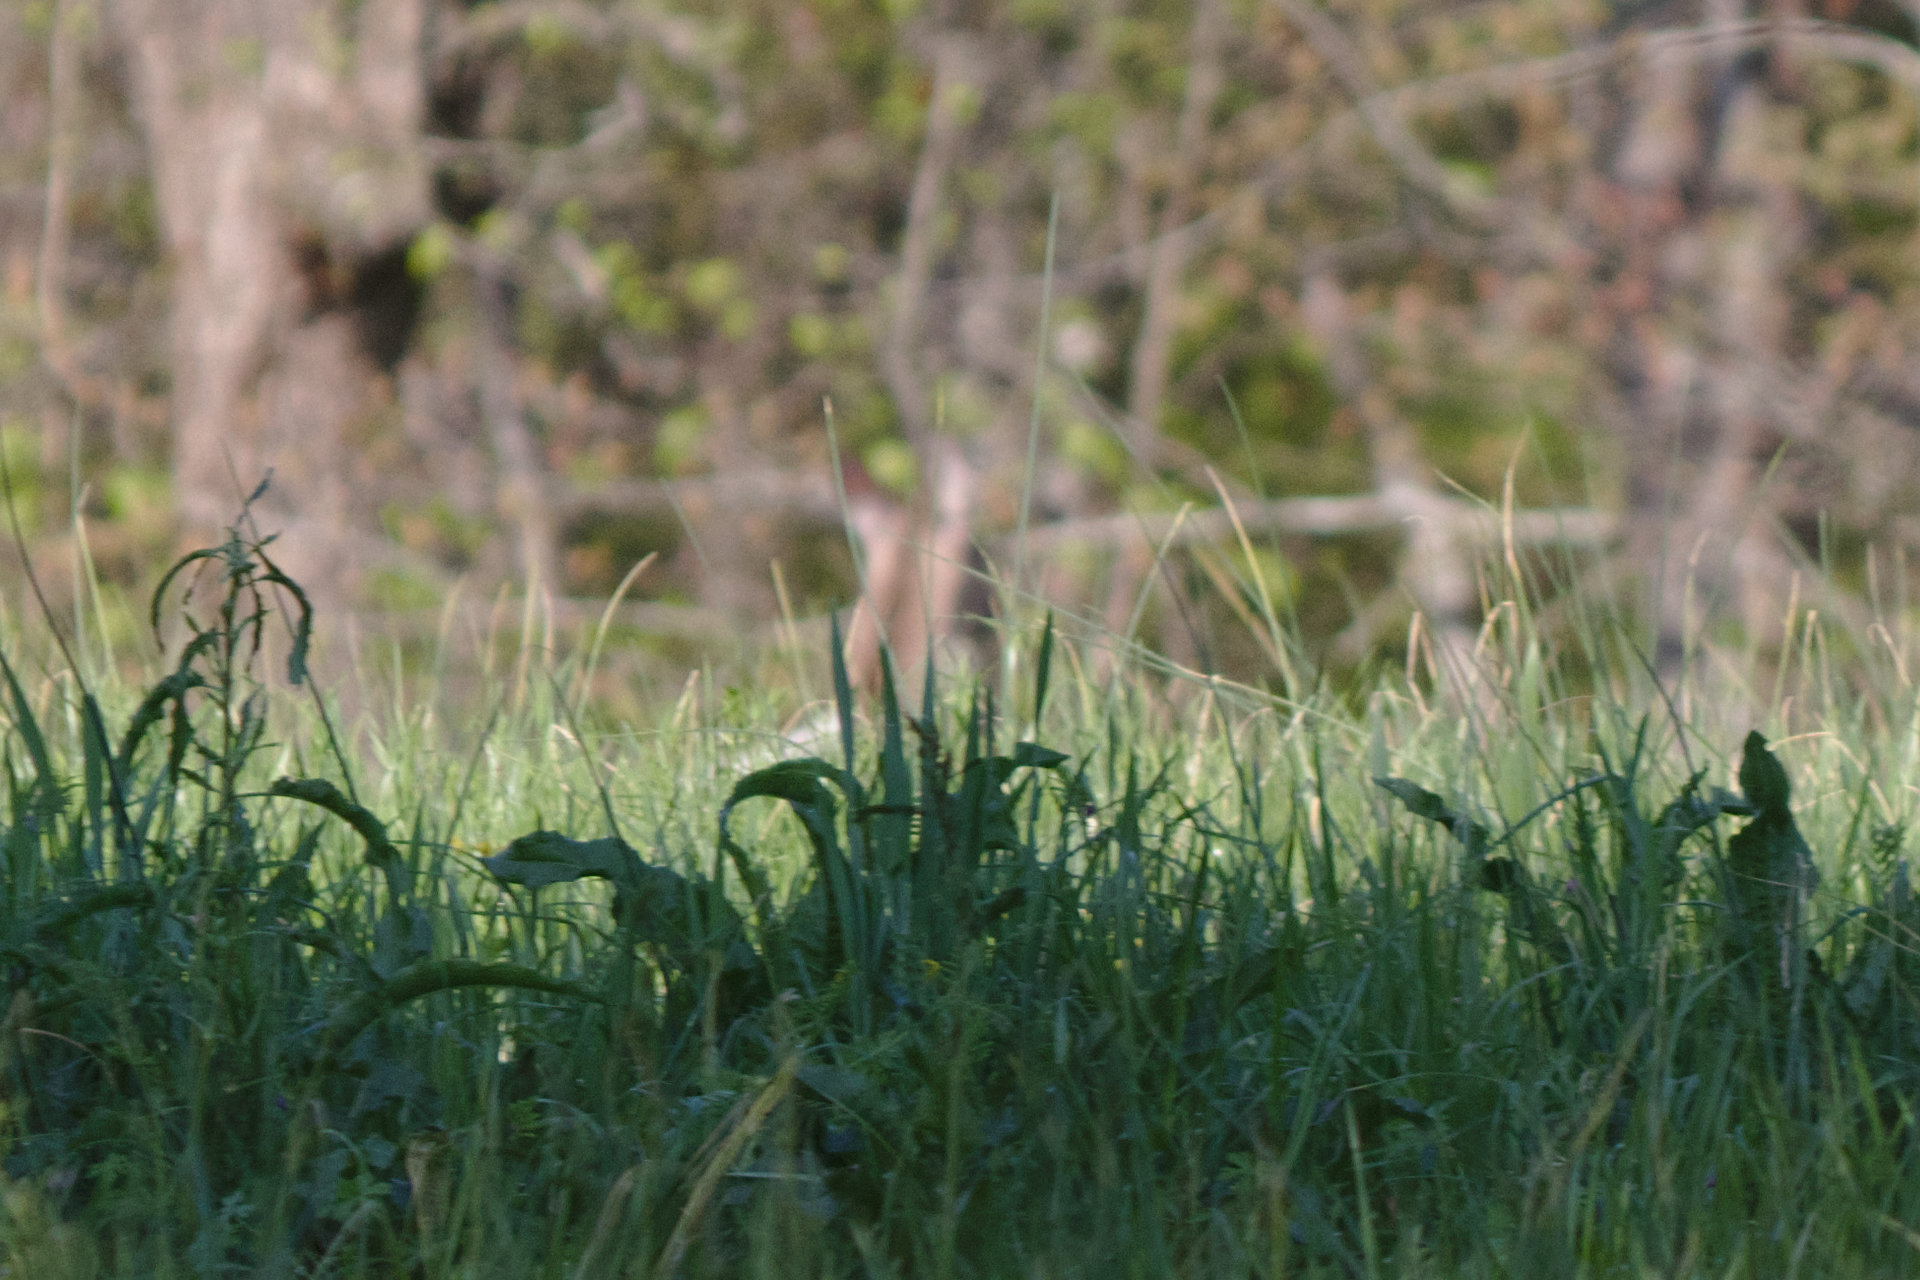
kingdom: Animalia
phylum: Chordata
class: Mammalia
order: Artiodactyla
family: Cervidae
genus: Odocoileus
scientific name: Odocoileus virginianus
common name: White-tailed deer
